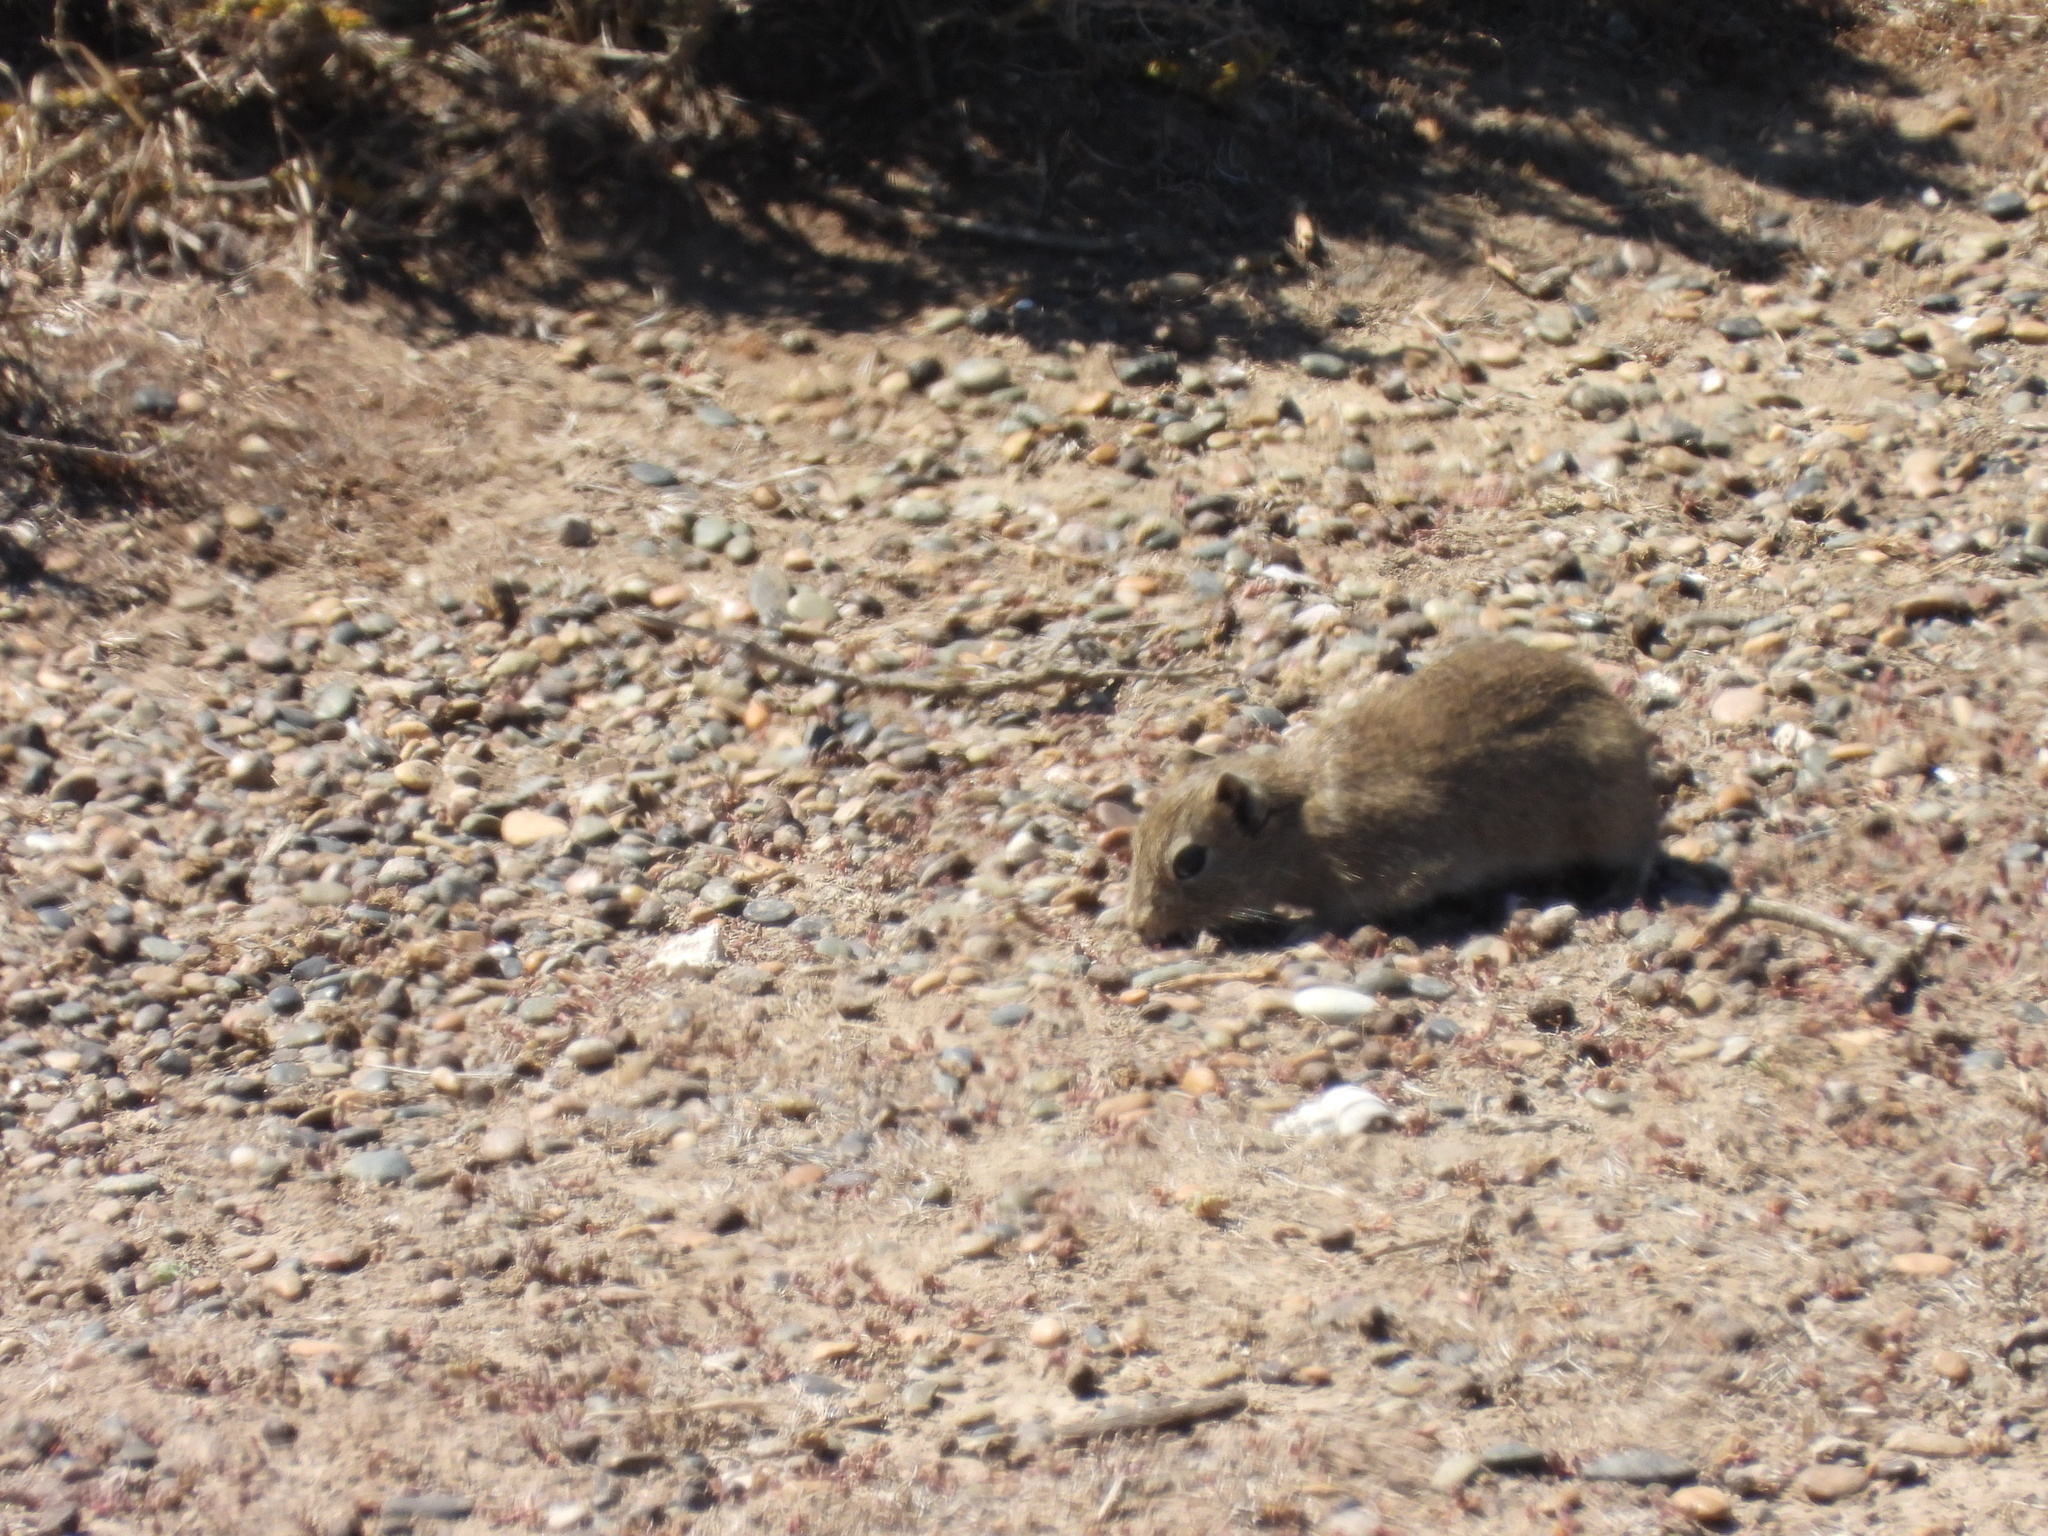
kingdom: Animalia
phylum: Chordata
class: Mammalia
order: Rodentia
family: Caviidae
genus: Microcavia
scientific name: Microcavia australis
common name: Southern mountain cavy
